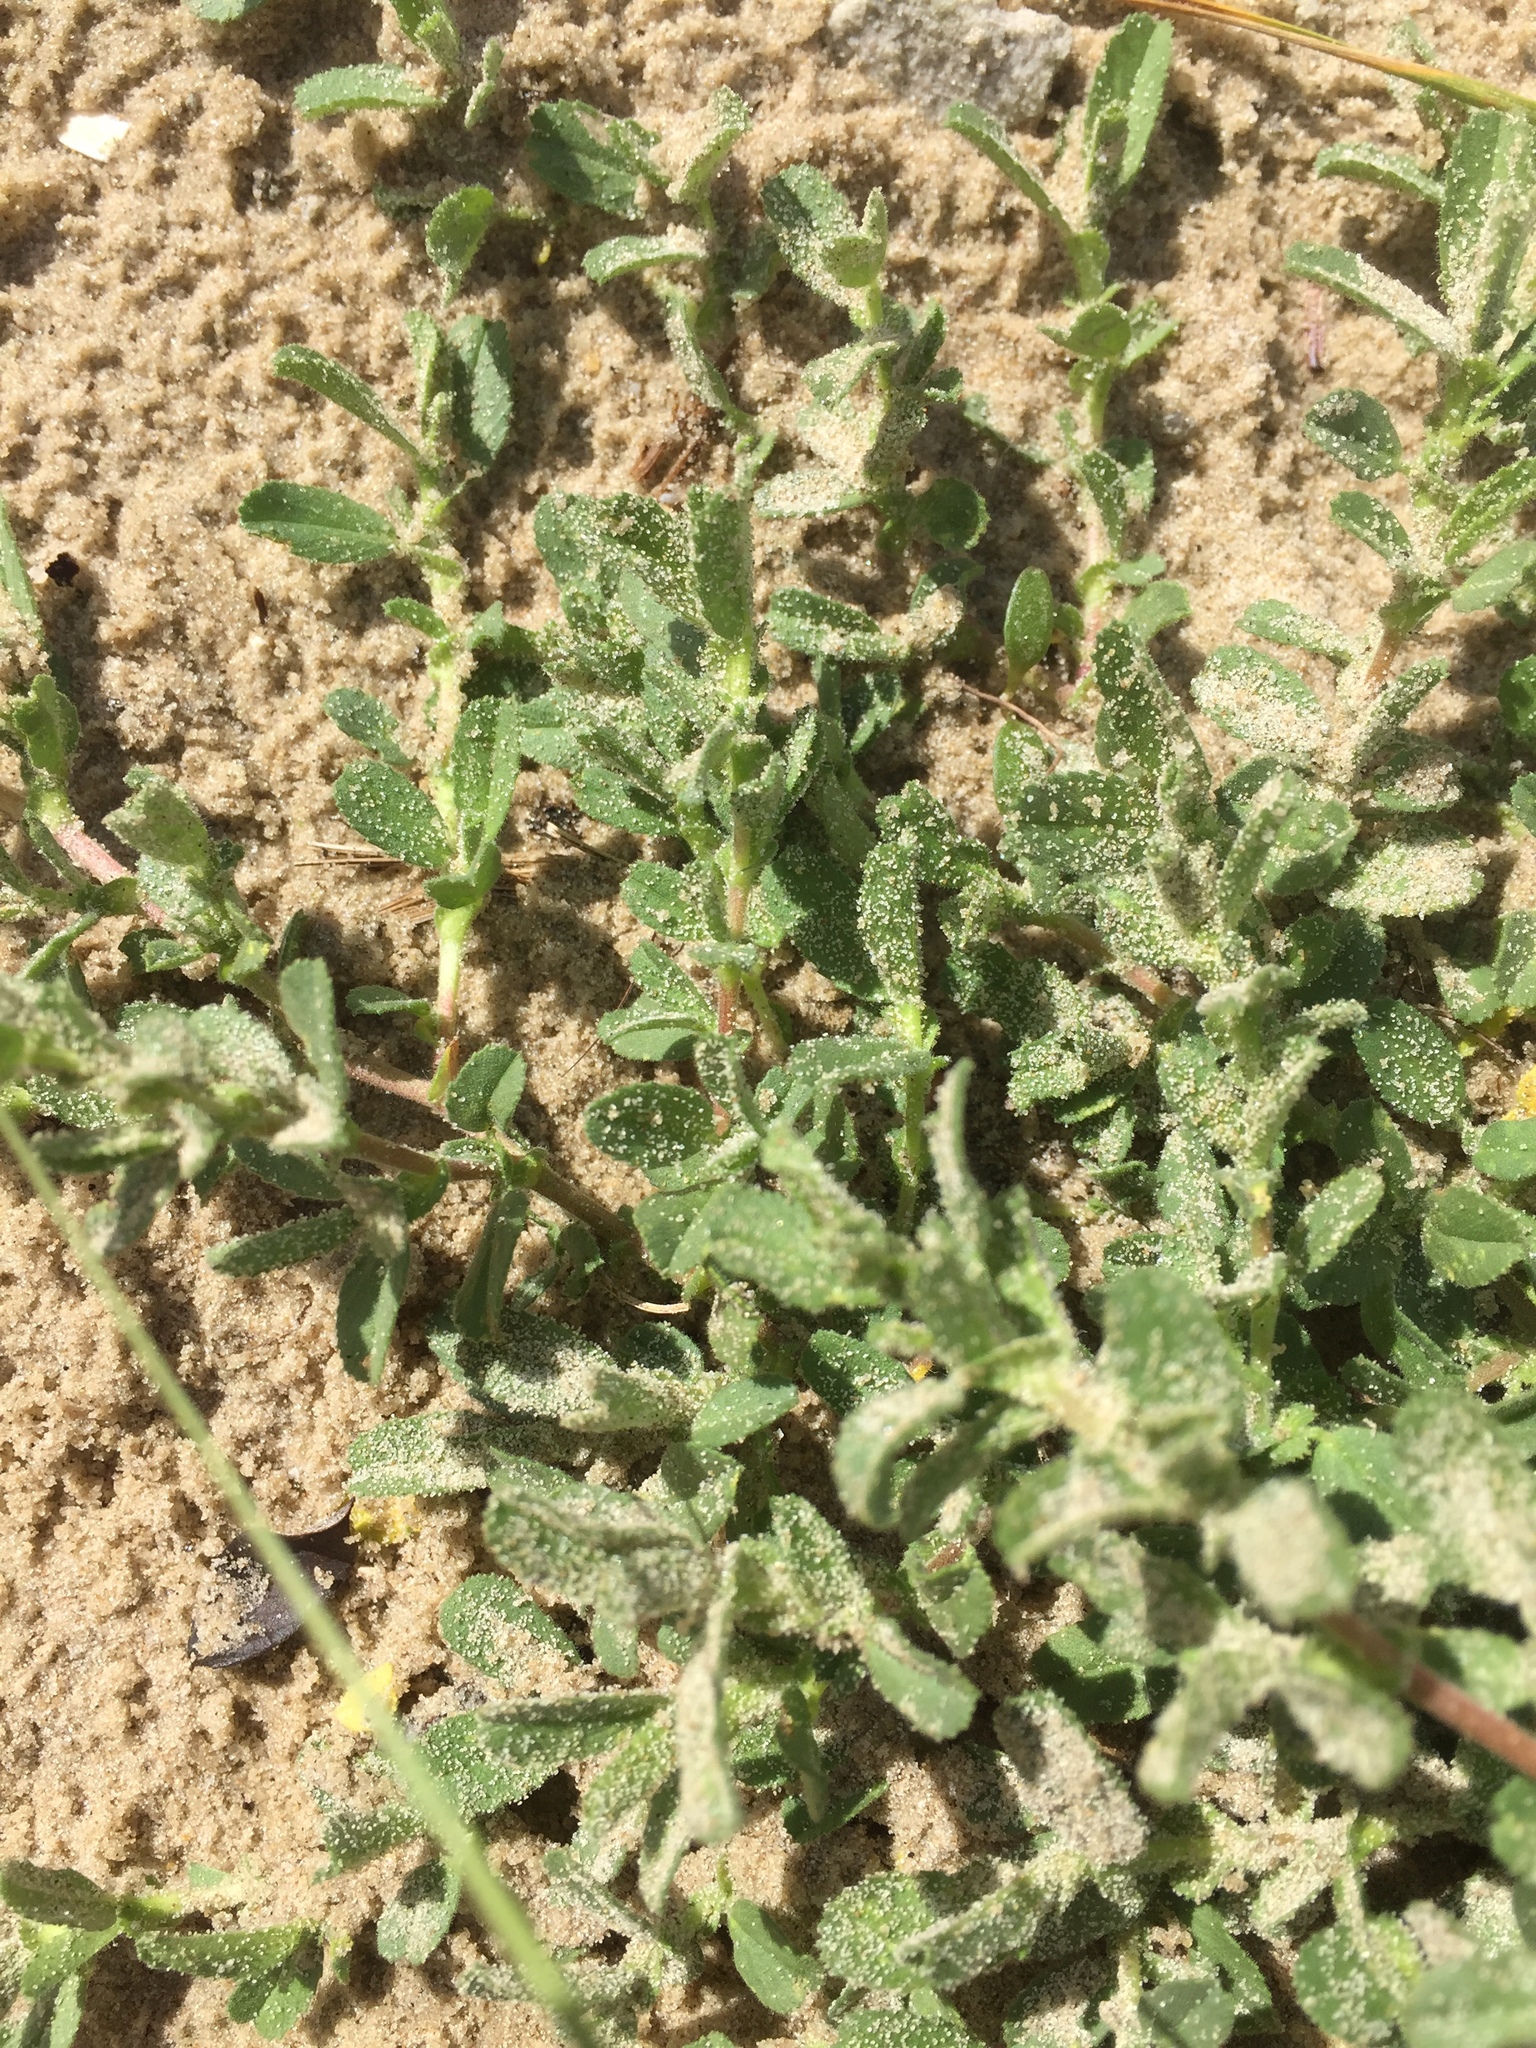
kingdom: Plantae
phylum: Tracheophyta
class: Magnoliopsida
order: Fabales
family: Fabaceae
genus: Ononis
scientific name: Ononis spinosa
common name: Spiny restharrow
